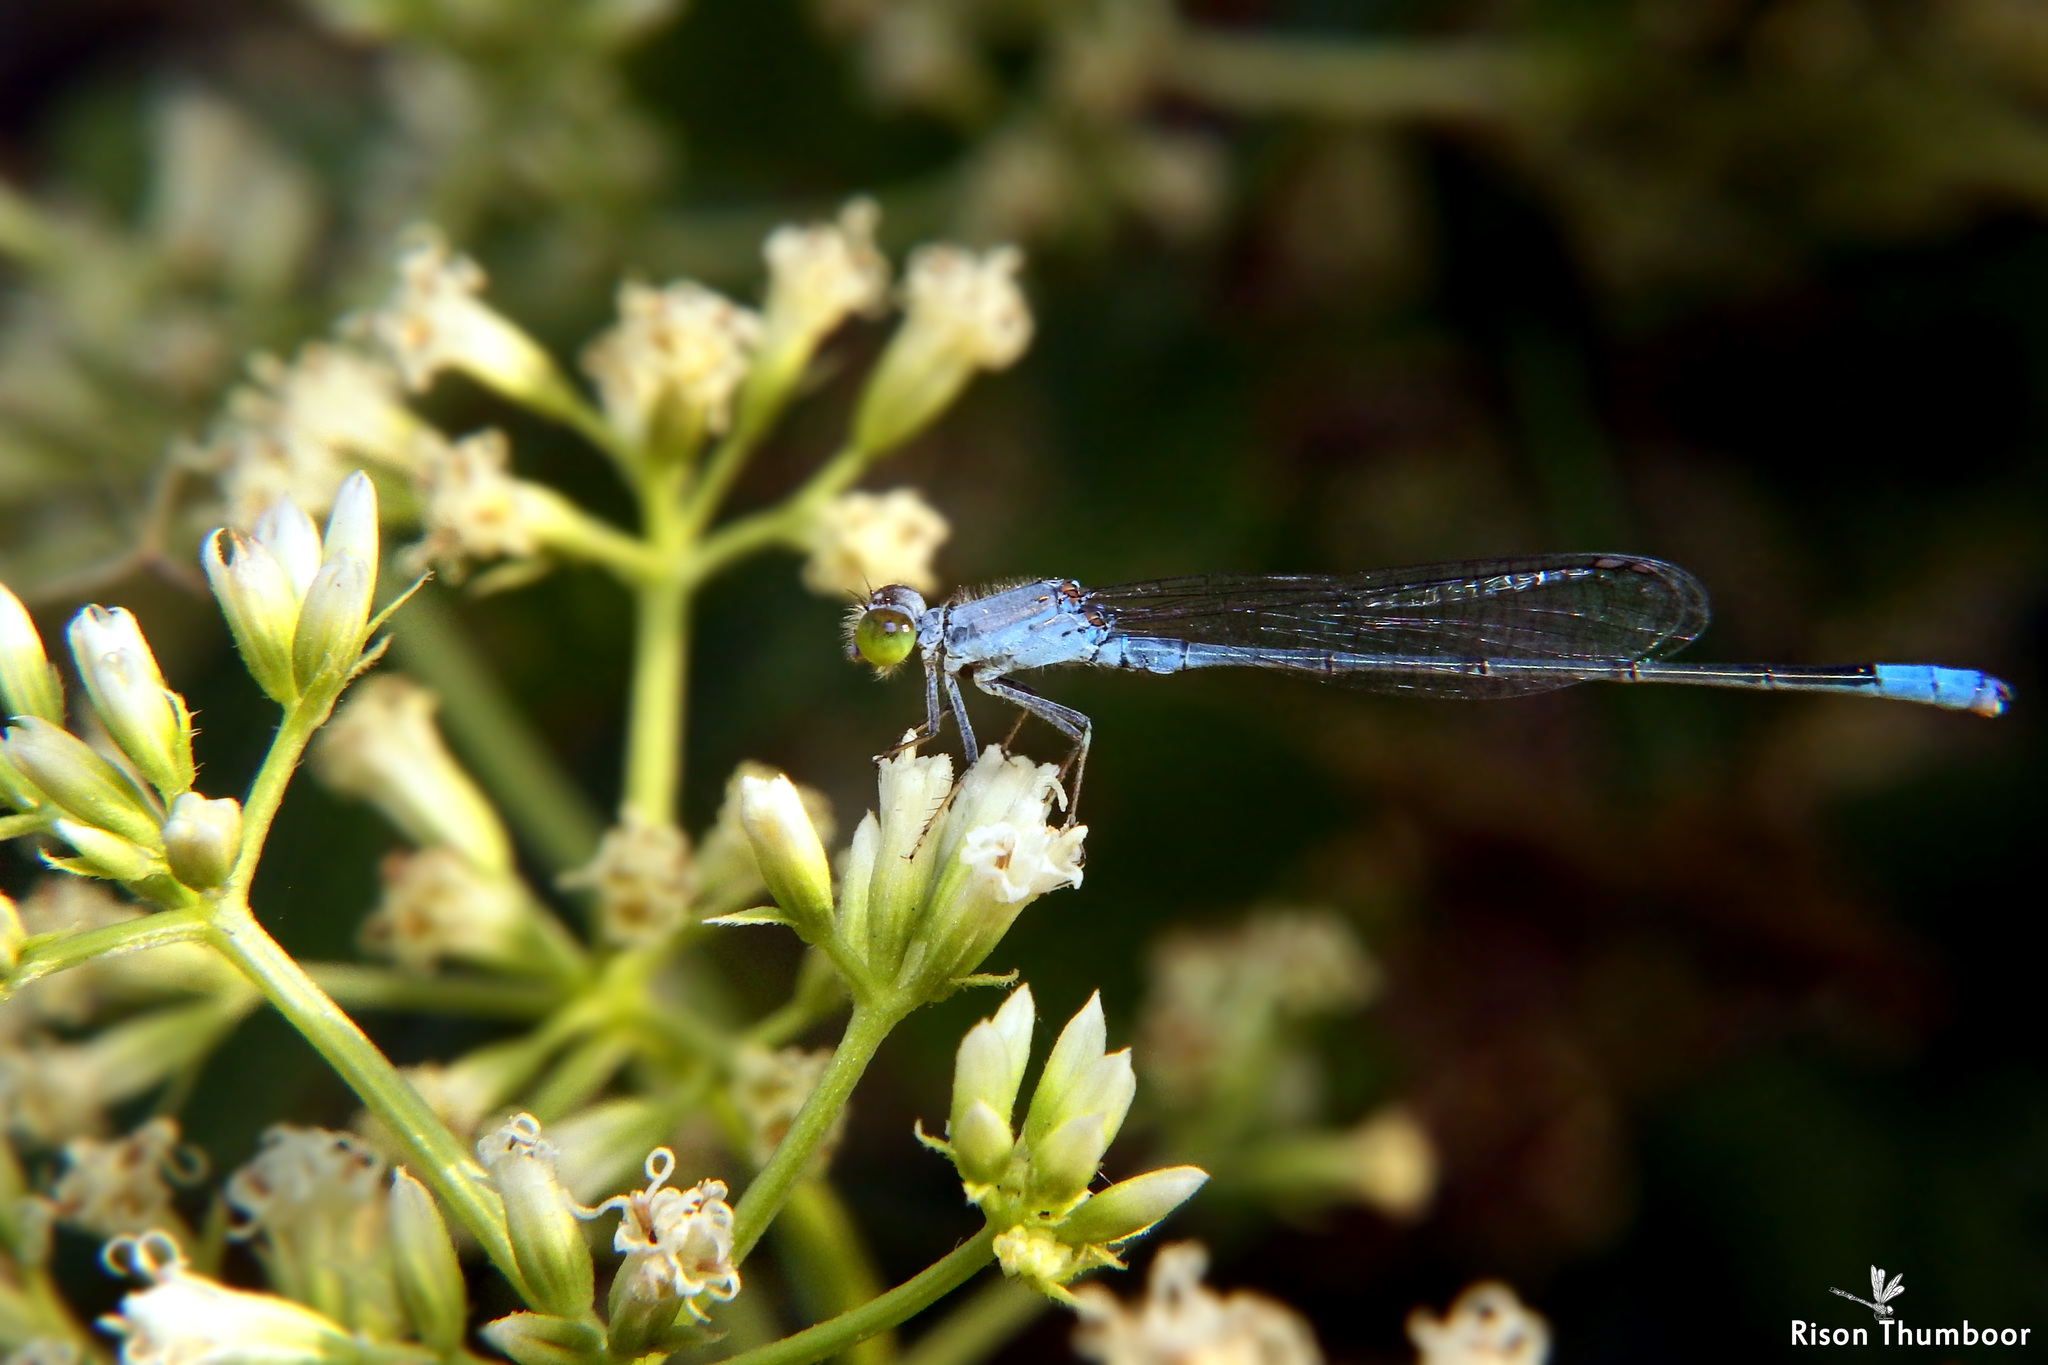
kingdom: Animalia
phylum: Arthropoda
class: Insecta
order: Odonata
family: Coenagrionidae
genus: Paracercion
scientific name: Paracercion calamorum
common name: Dusky lilysquatter
